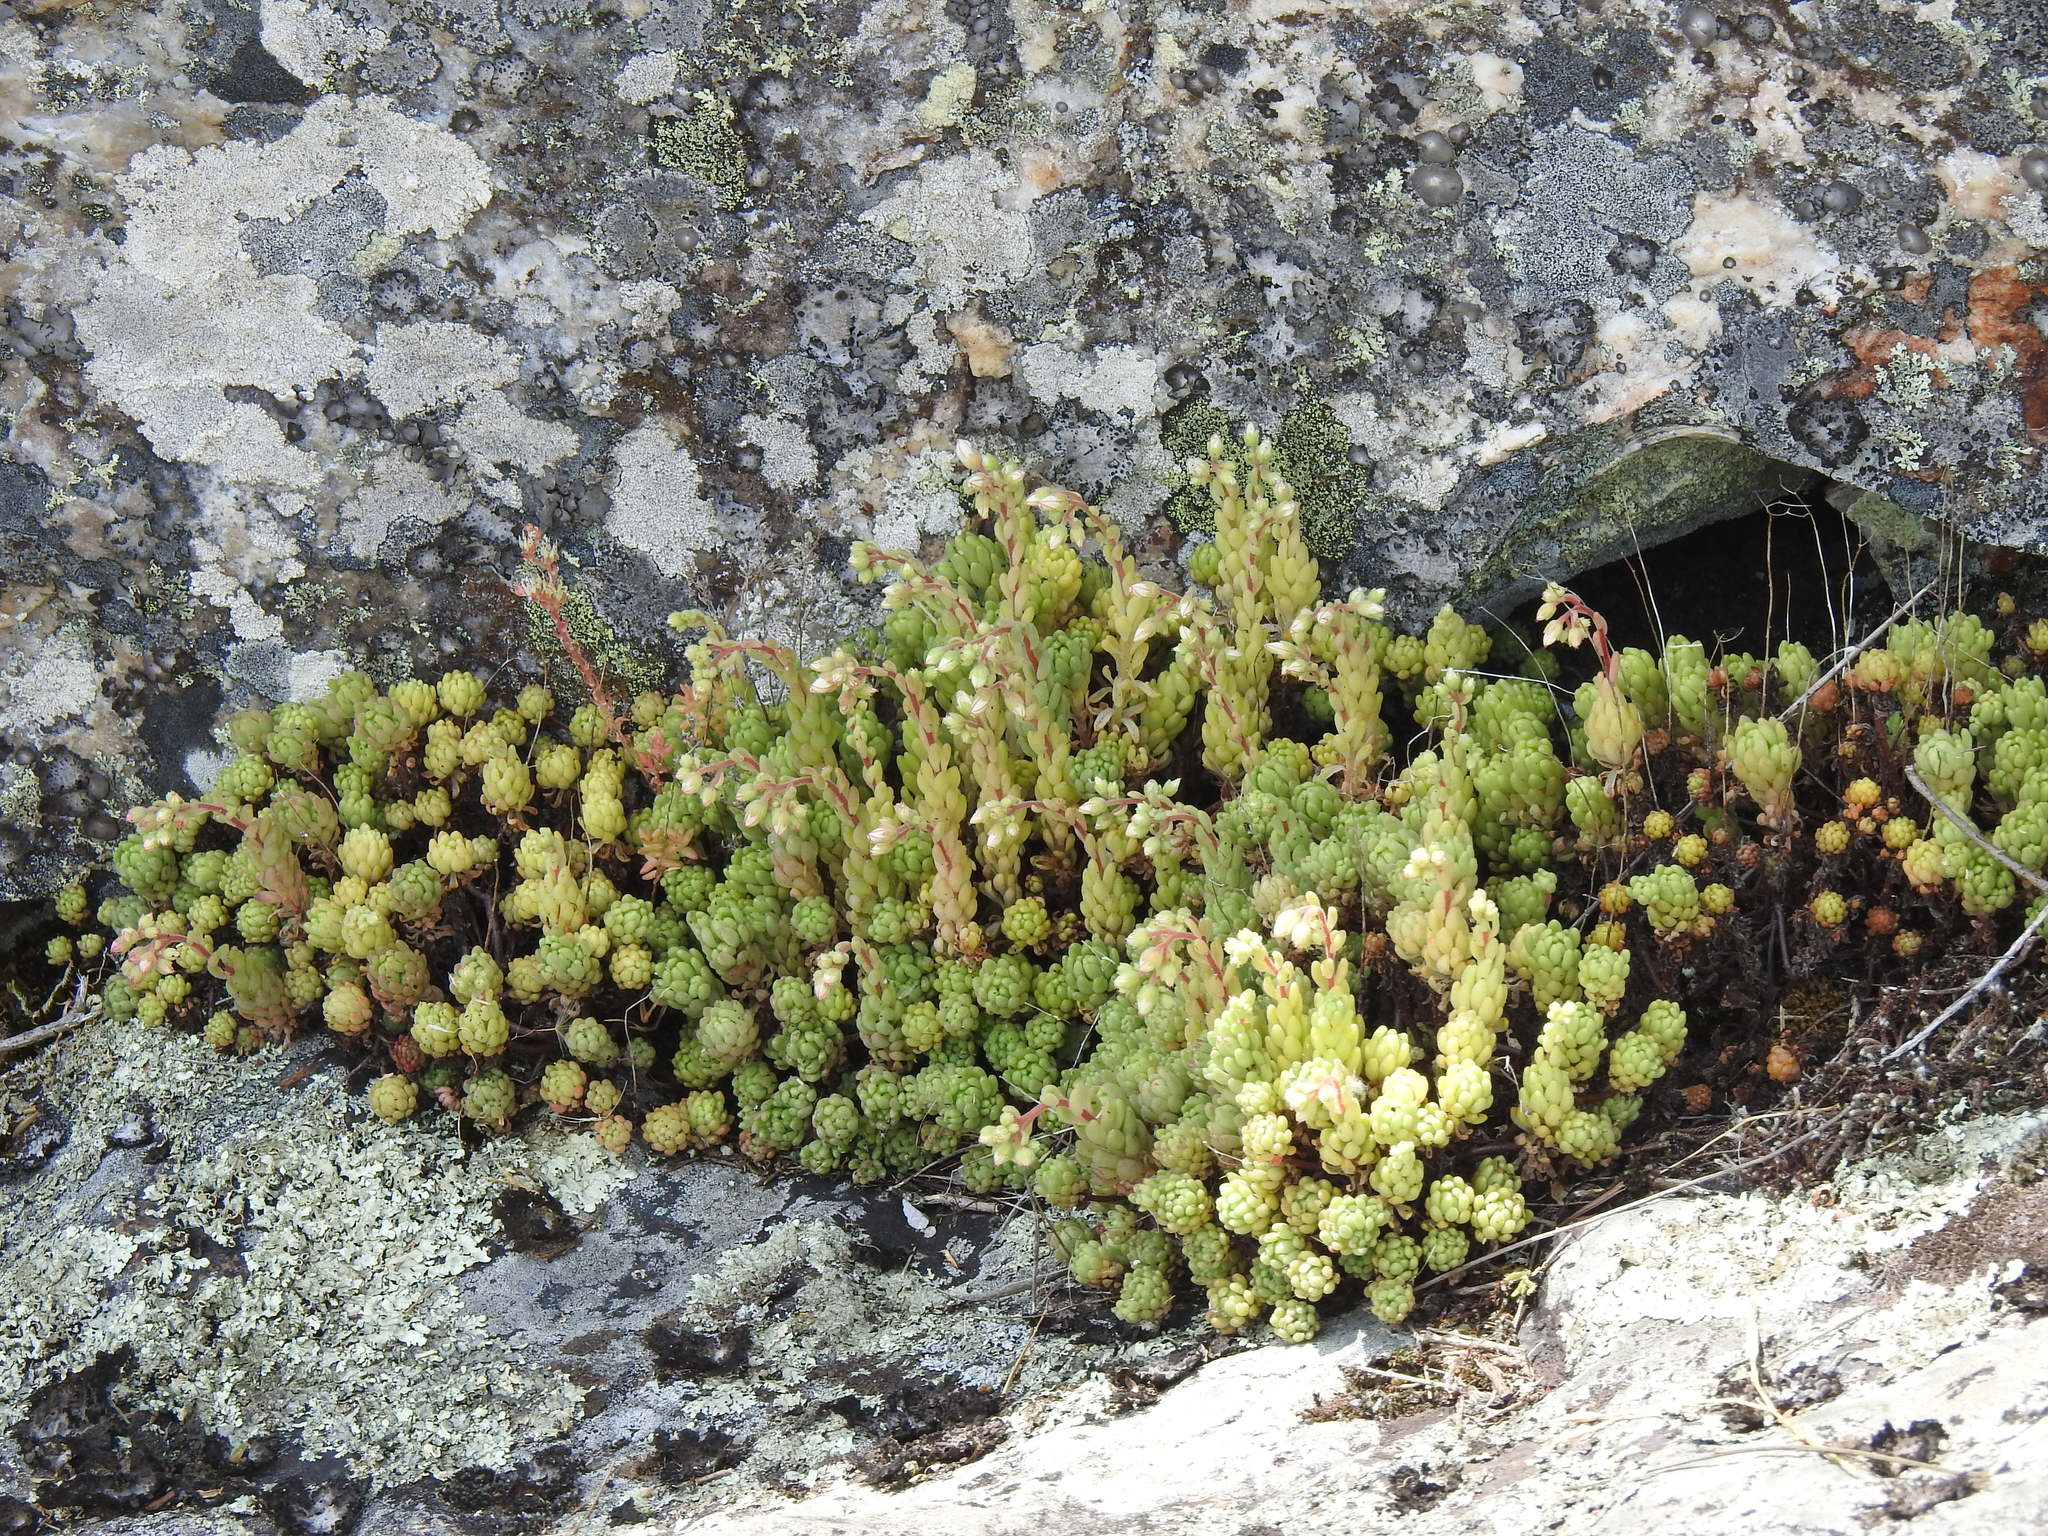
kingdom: Plantae
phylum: Tracheophyta
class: Magnoliopsida
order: Saxifragales
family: Crassulaceae
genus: Sedum
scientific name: Sedum hirsutum
